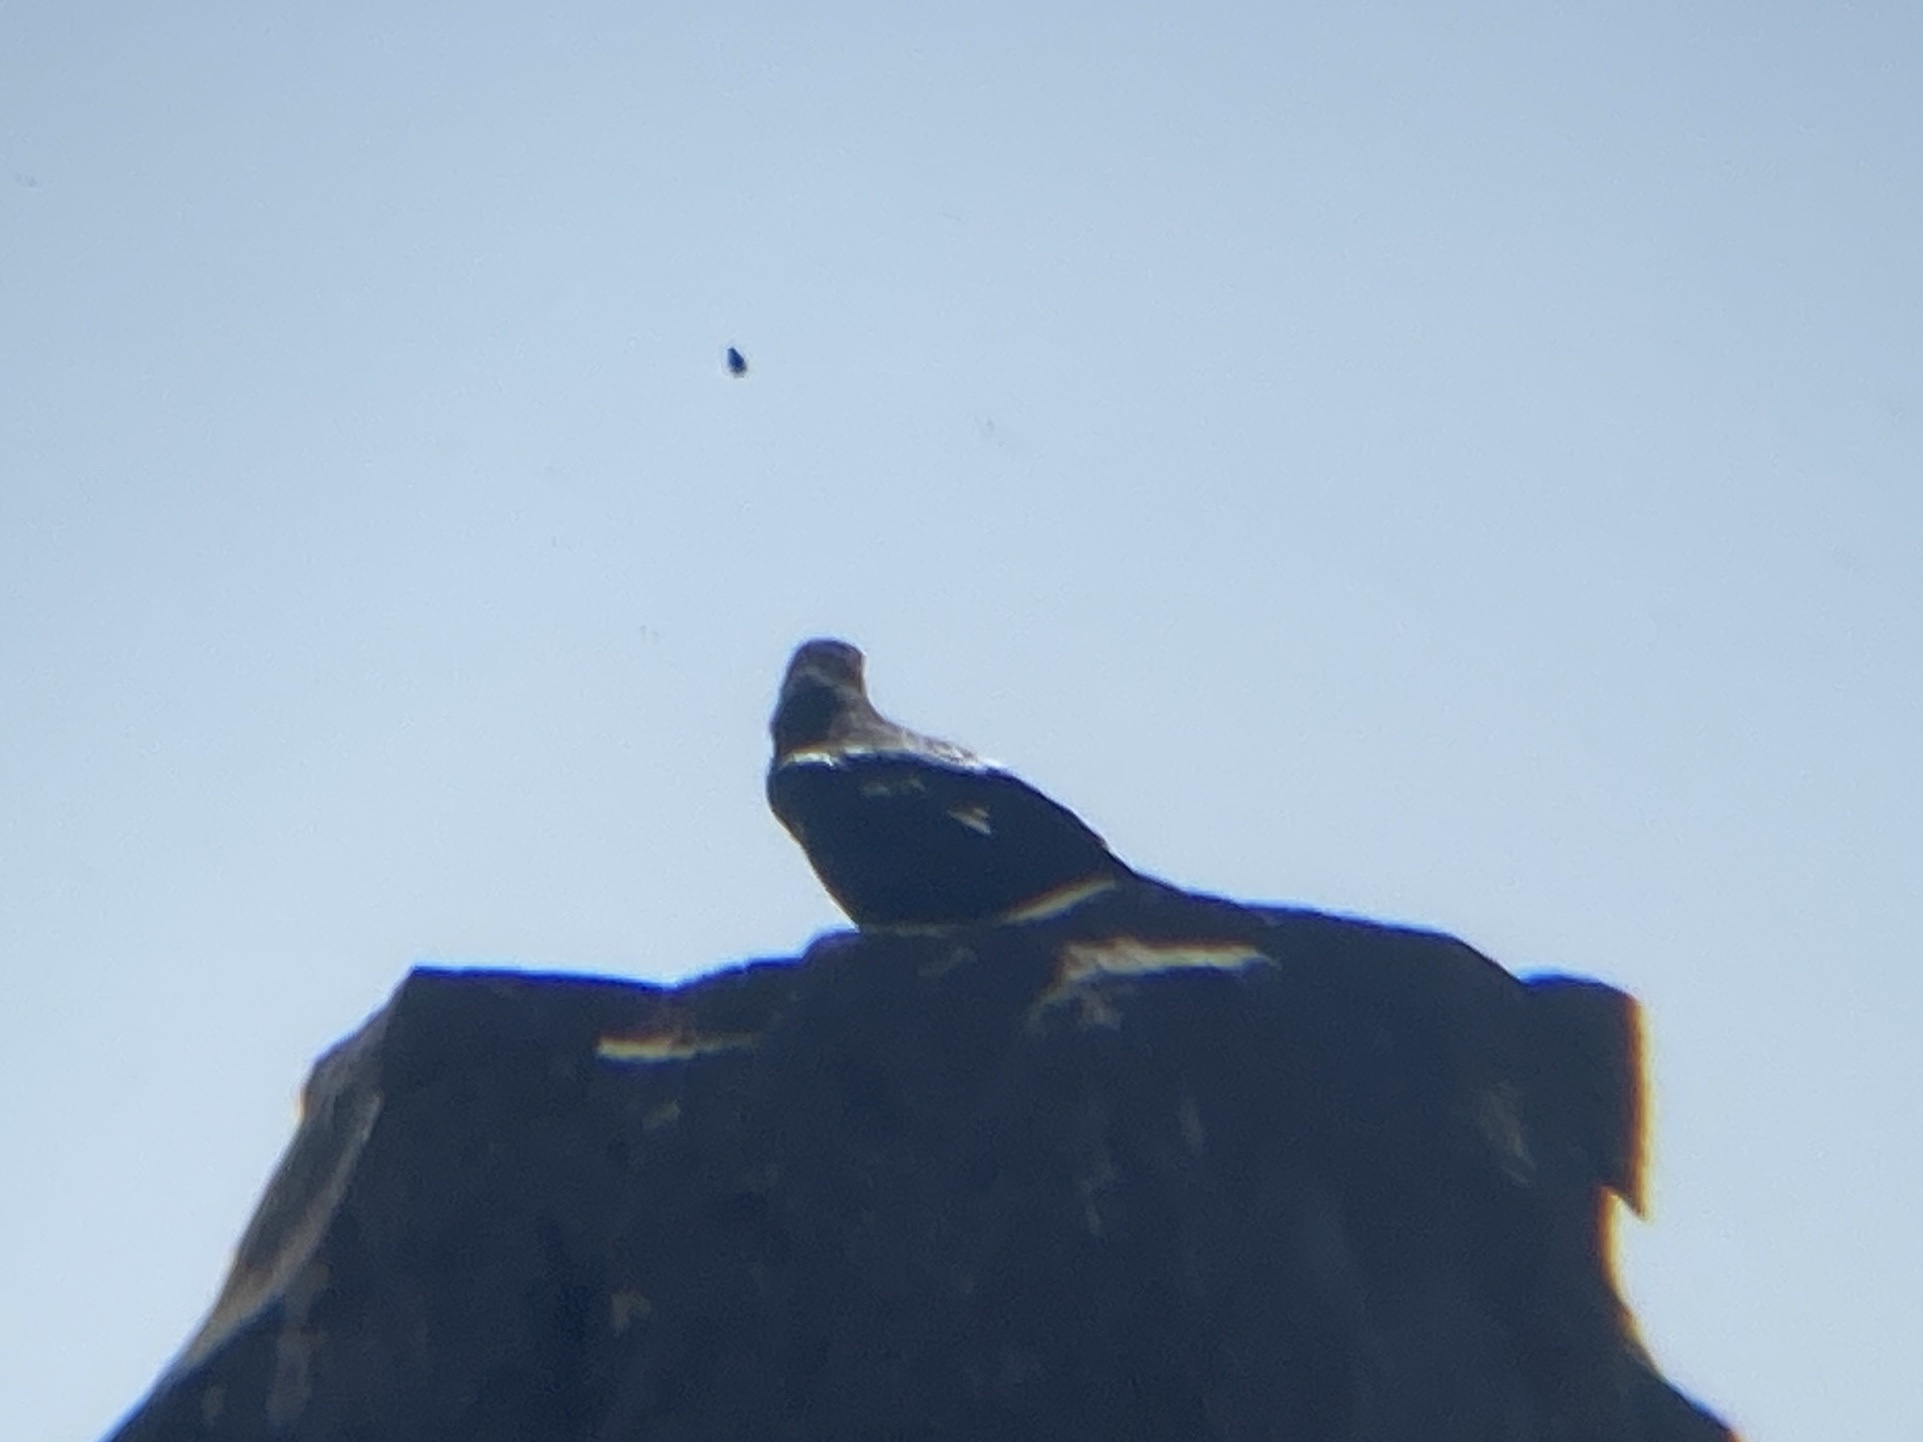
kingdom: Animalia
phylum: Chordata
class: Aves
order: Passeriformes
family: Corvidae
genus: Corvus
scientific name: Corvus corax
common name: Common raven
